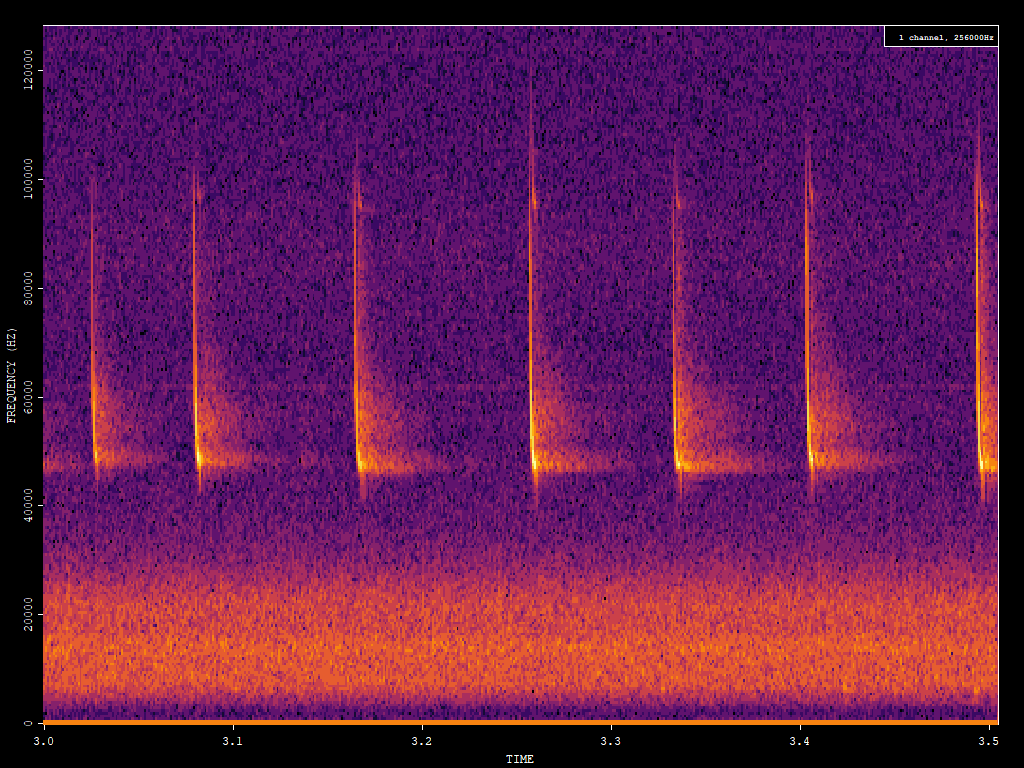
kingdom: Animalia
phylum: Chordata
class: Mammalia
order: Chiroptera
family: Vespertilionidae
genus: Pipistrellus
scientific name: Pipistrellus pipistrellus
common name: Common pipistrelle
